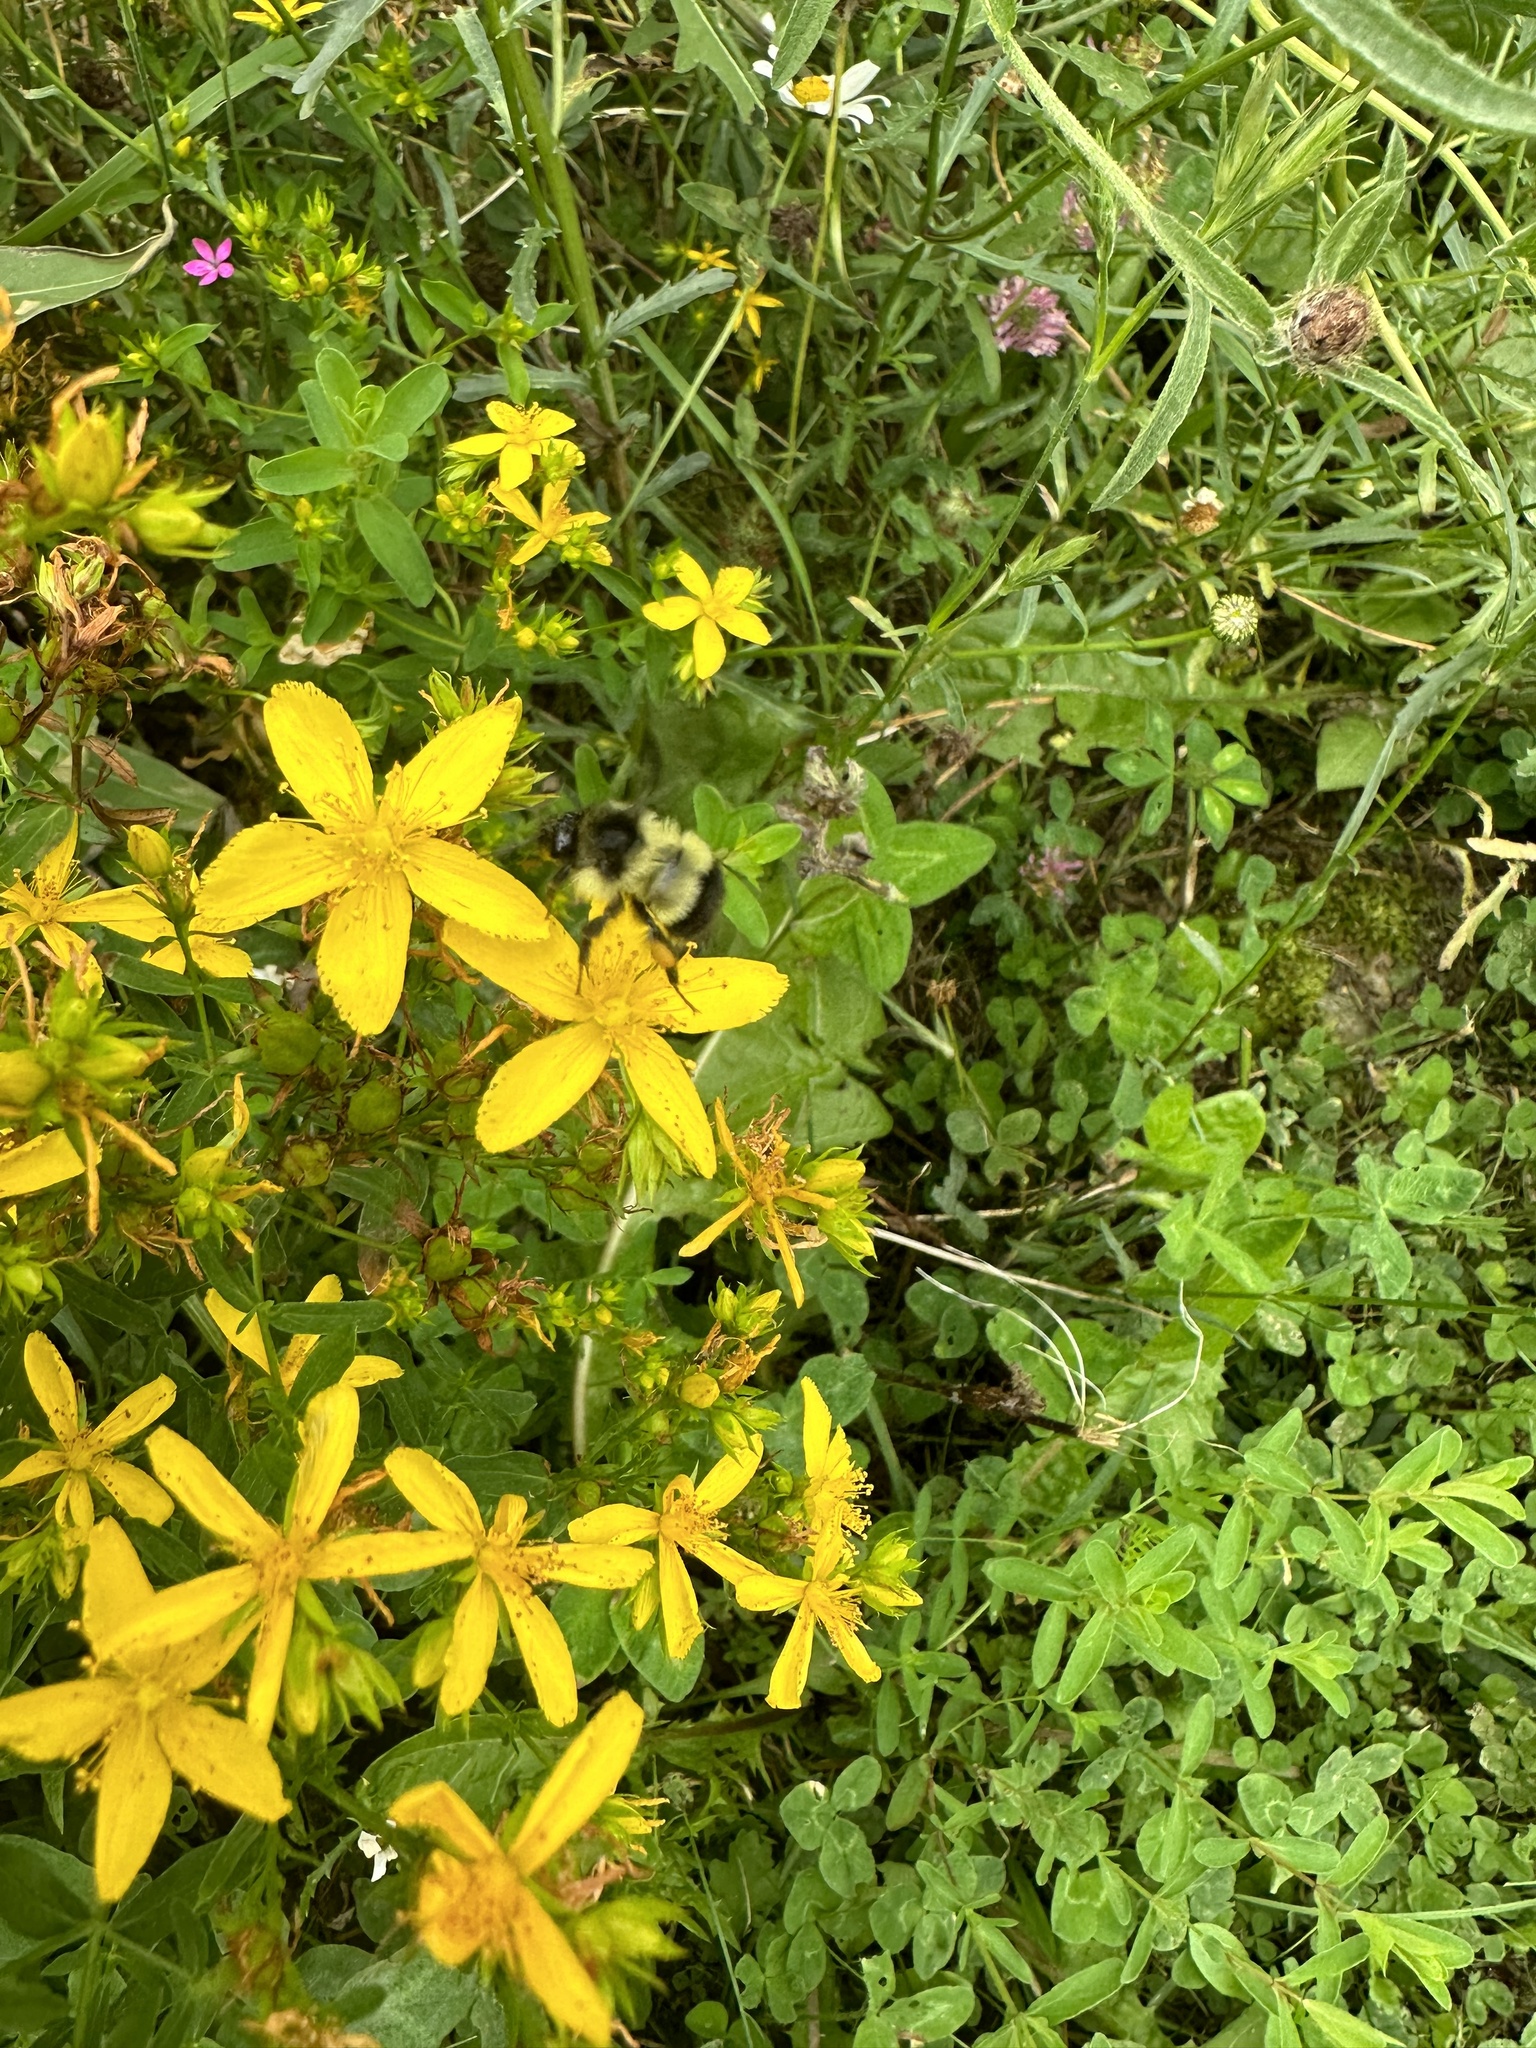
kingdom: Animalia
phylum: Arthropoda
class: Insecta
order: Hymenoptera
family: Apidae
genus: Bombus
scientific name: Bombus vagans
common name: Half-black bumble bee
